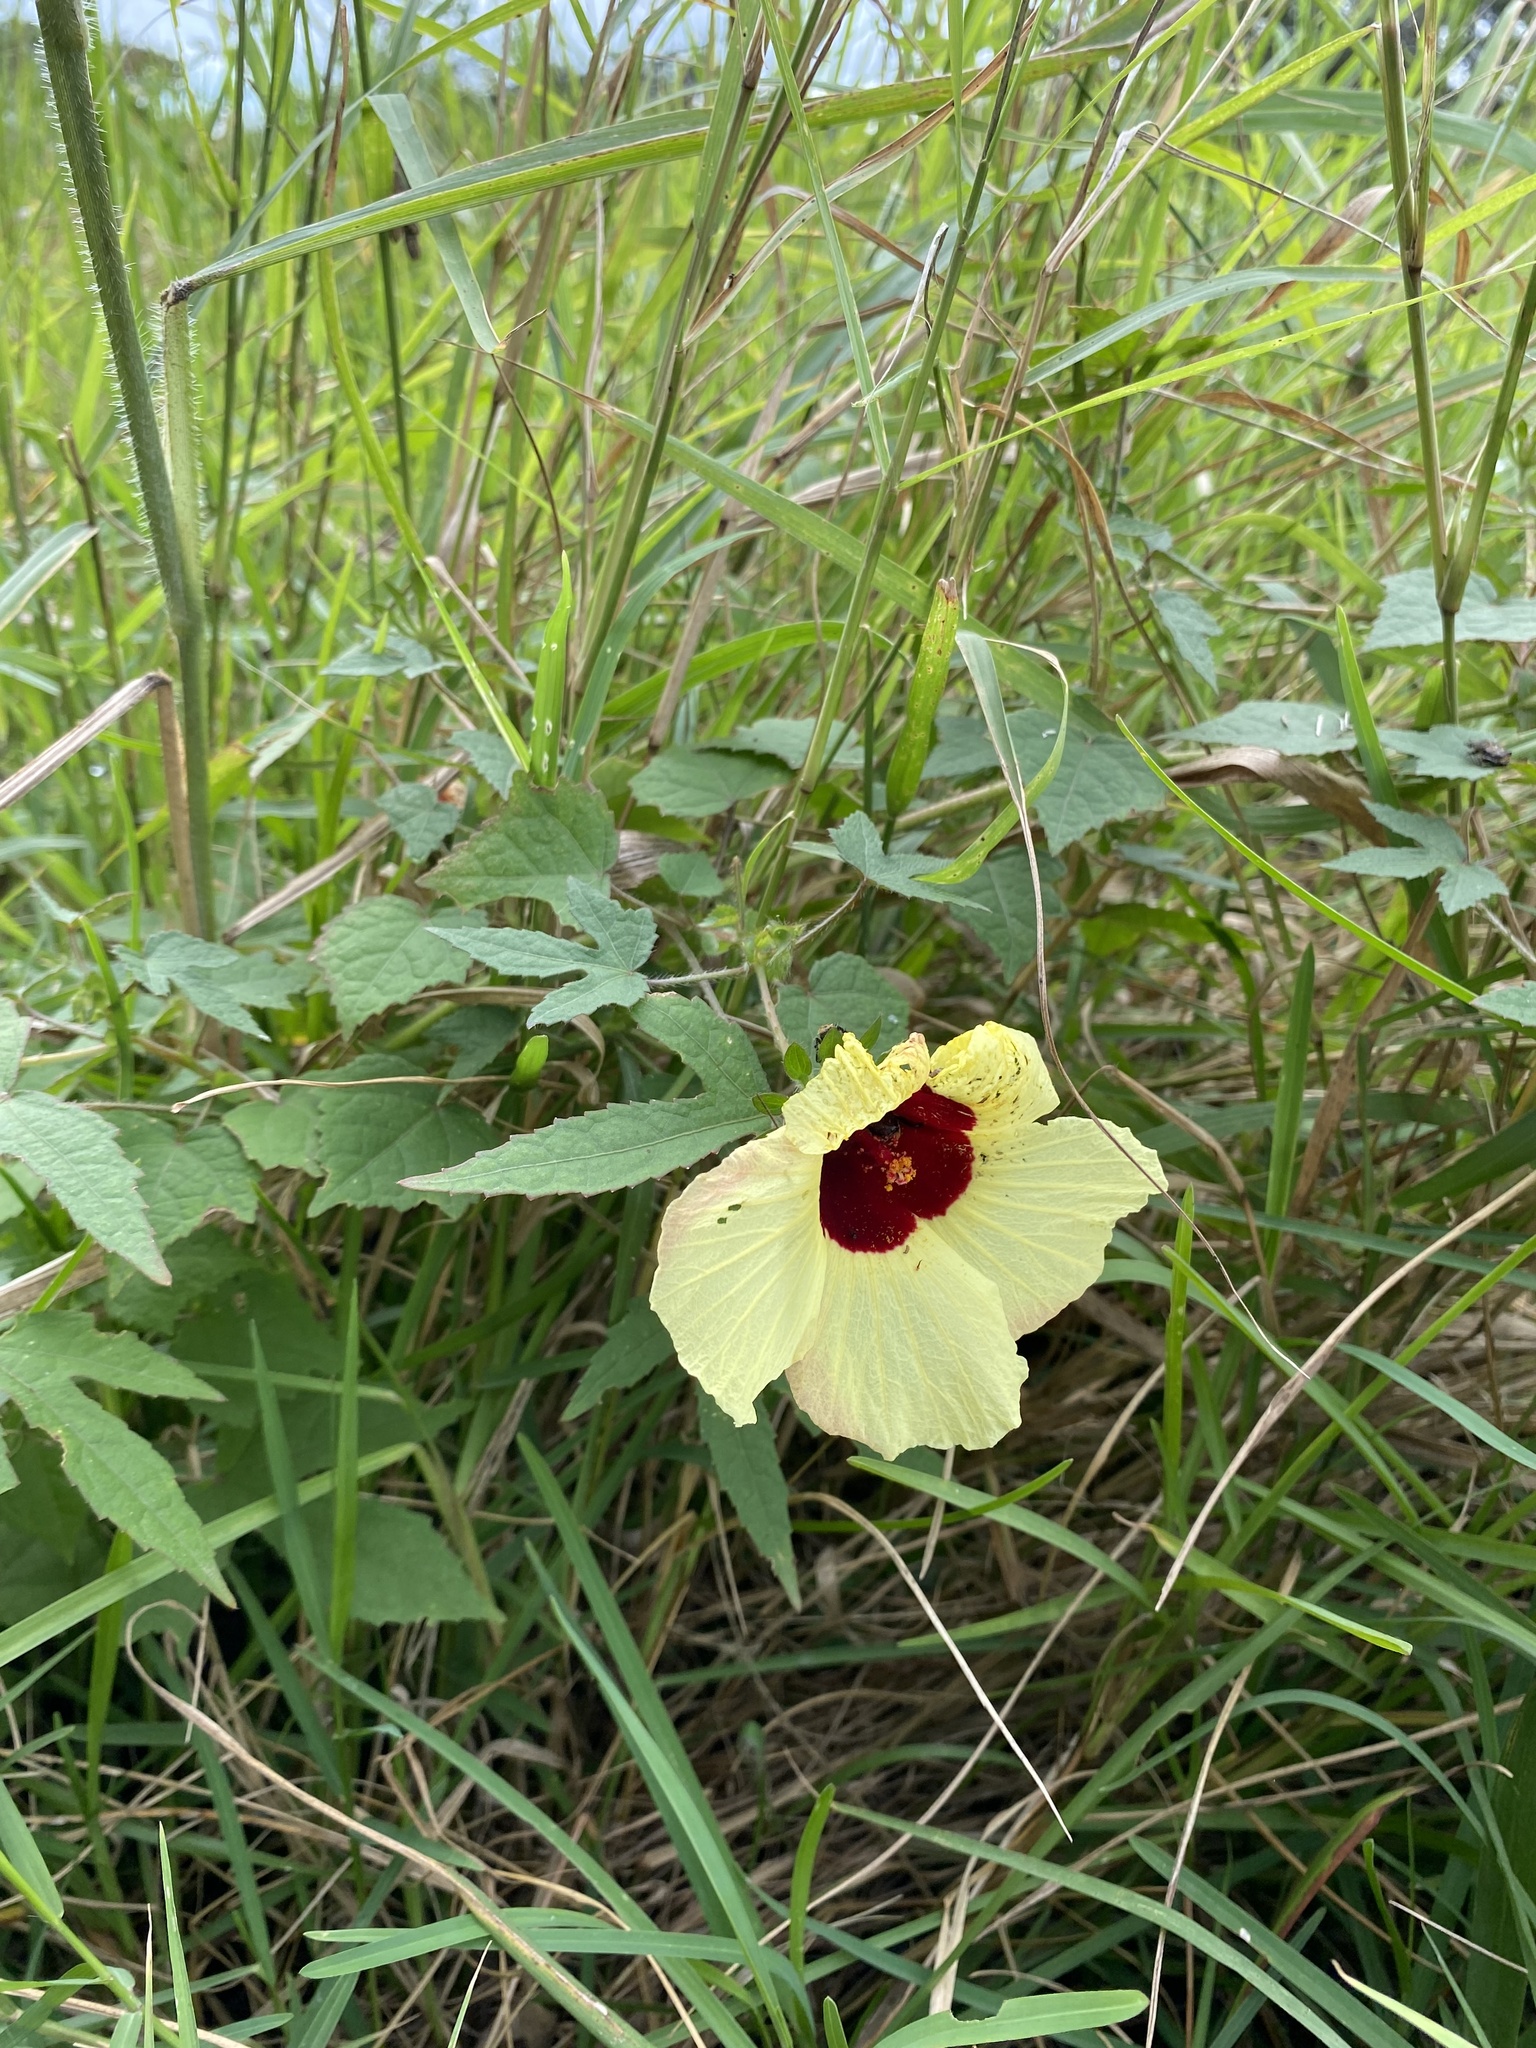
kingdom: Plantae
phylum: Tracheophyta
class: Magnoliopsida
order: Malvales
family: Malvaceae
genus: Hibiscus
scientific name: Hibiscus surattensis
